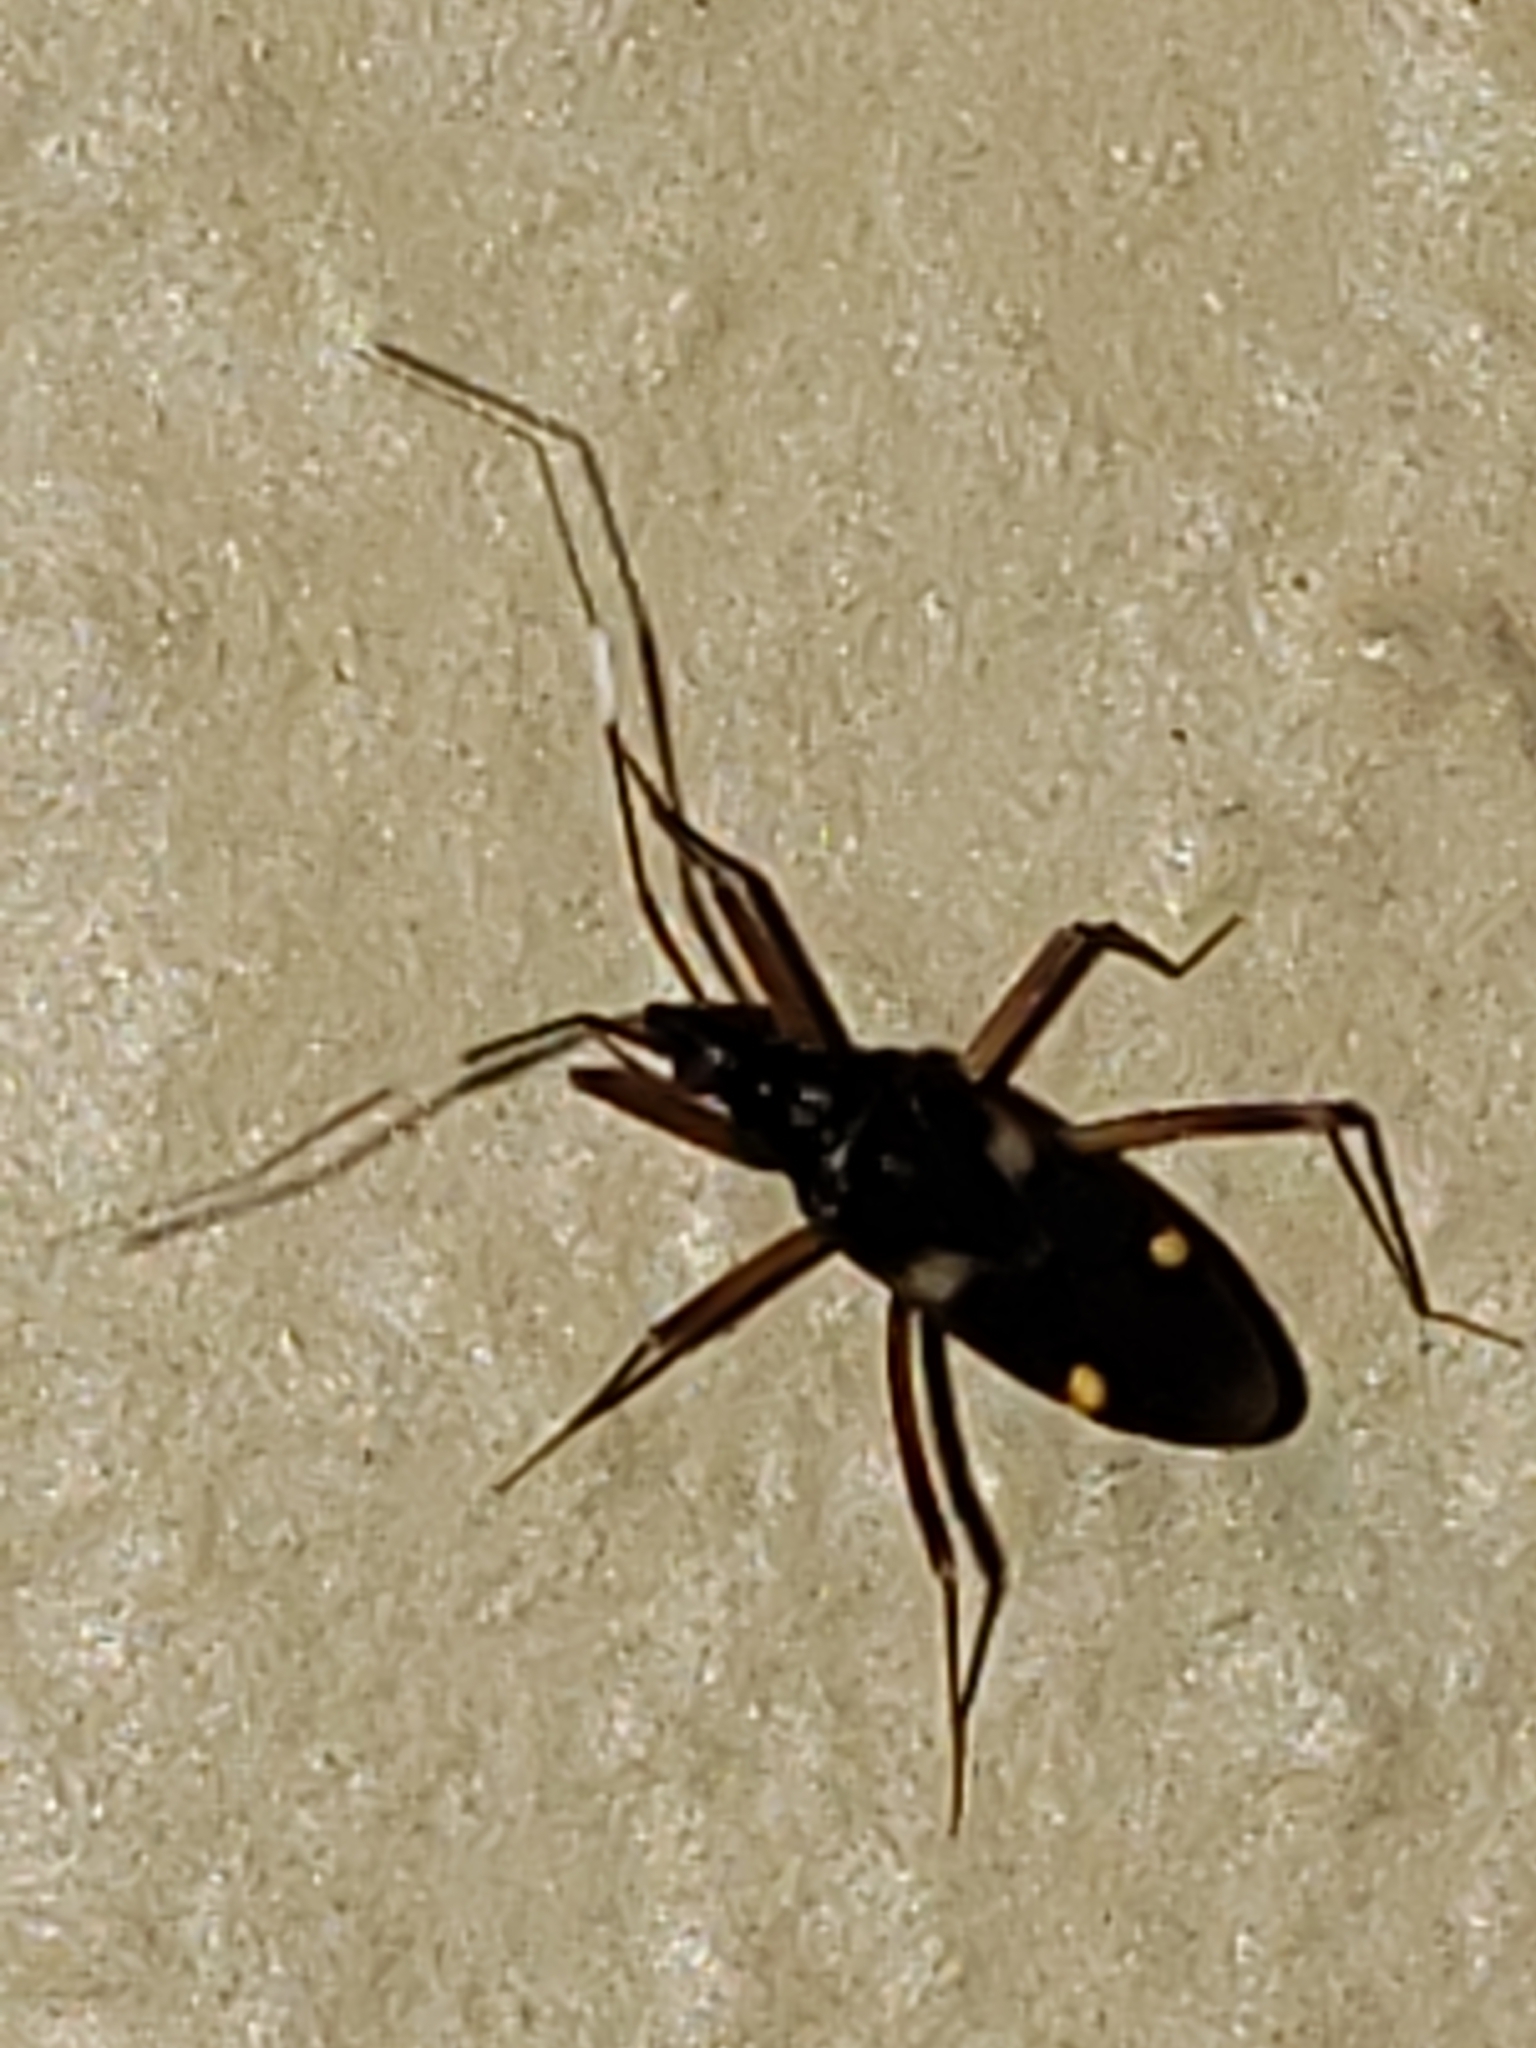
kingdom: Animalia
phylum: Arthropoda
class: Insecta
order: Hemiptera
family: Miridae
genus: Fulvius
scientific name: Fulvius imbecilis
